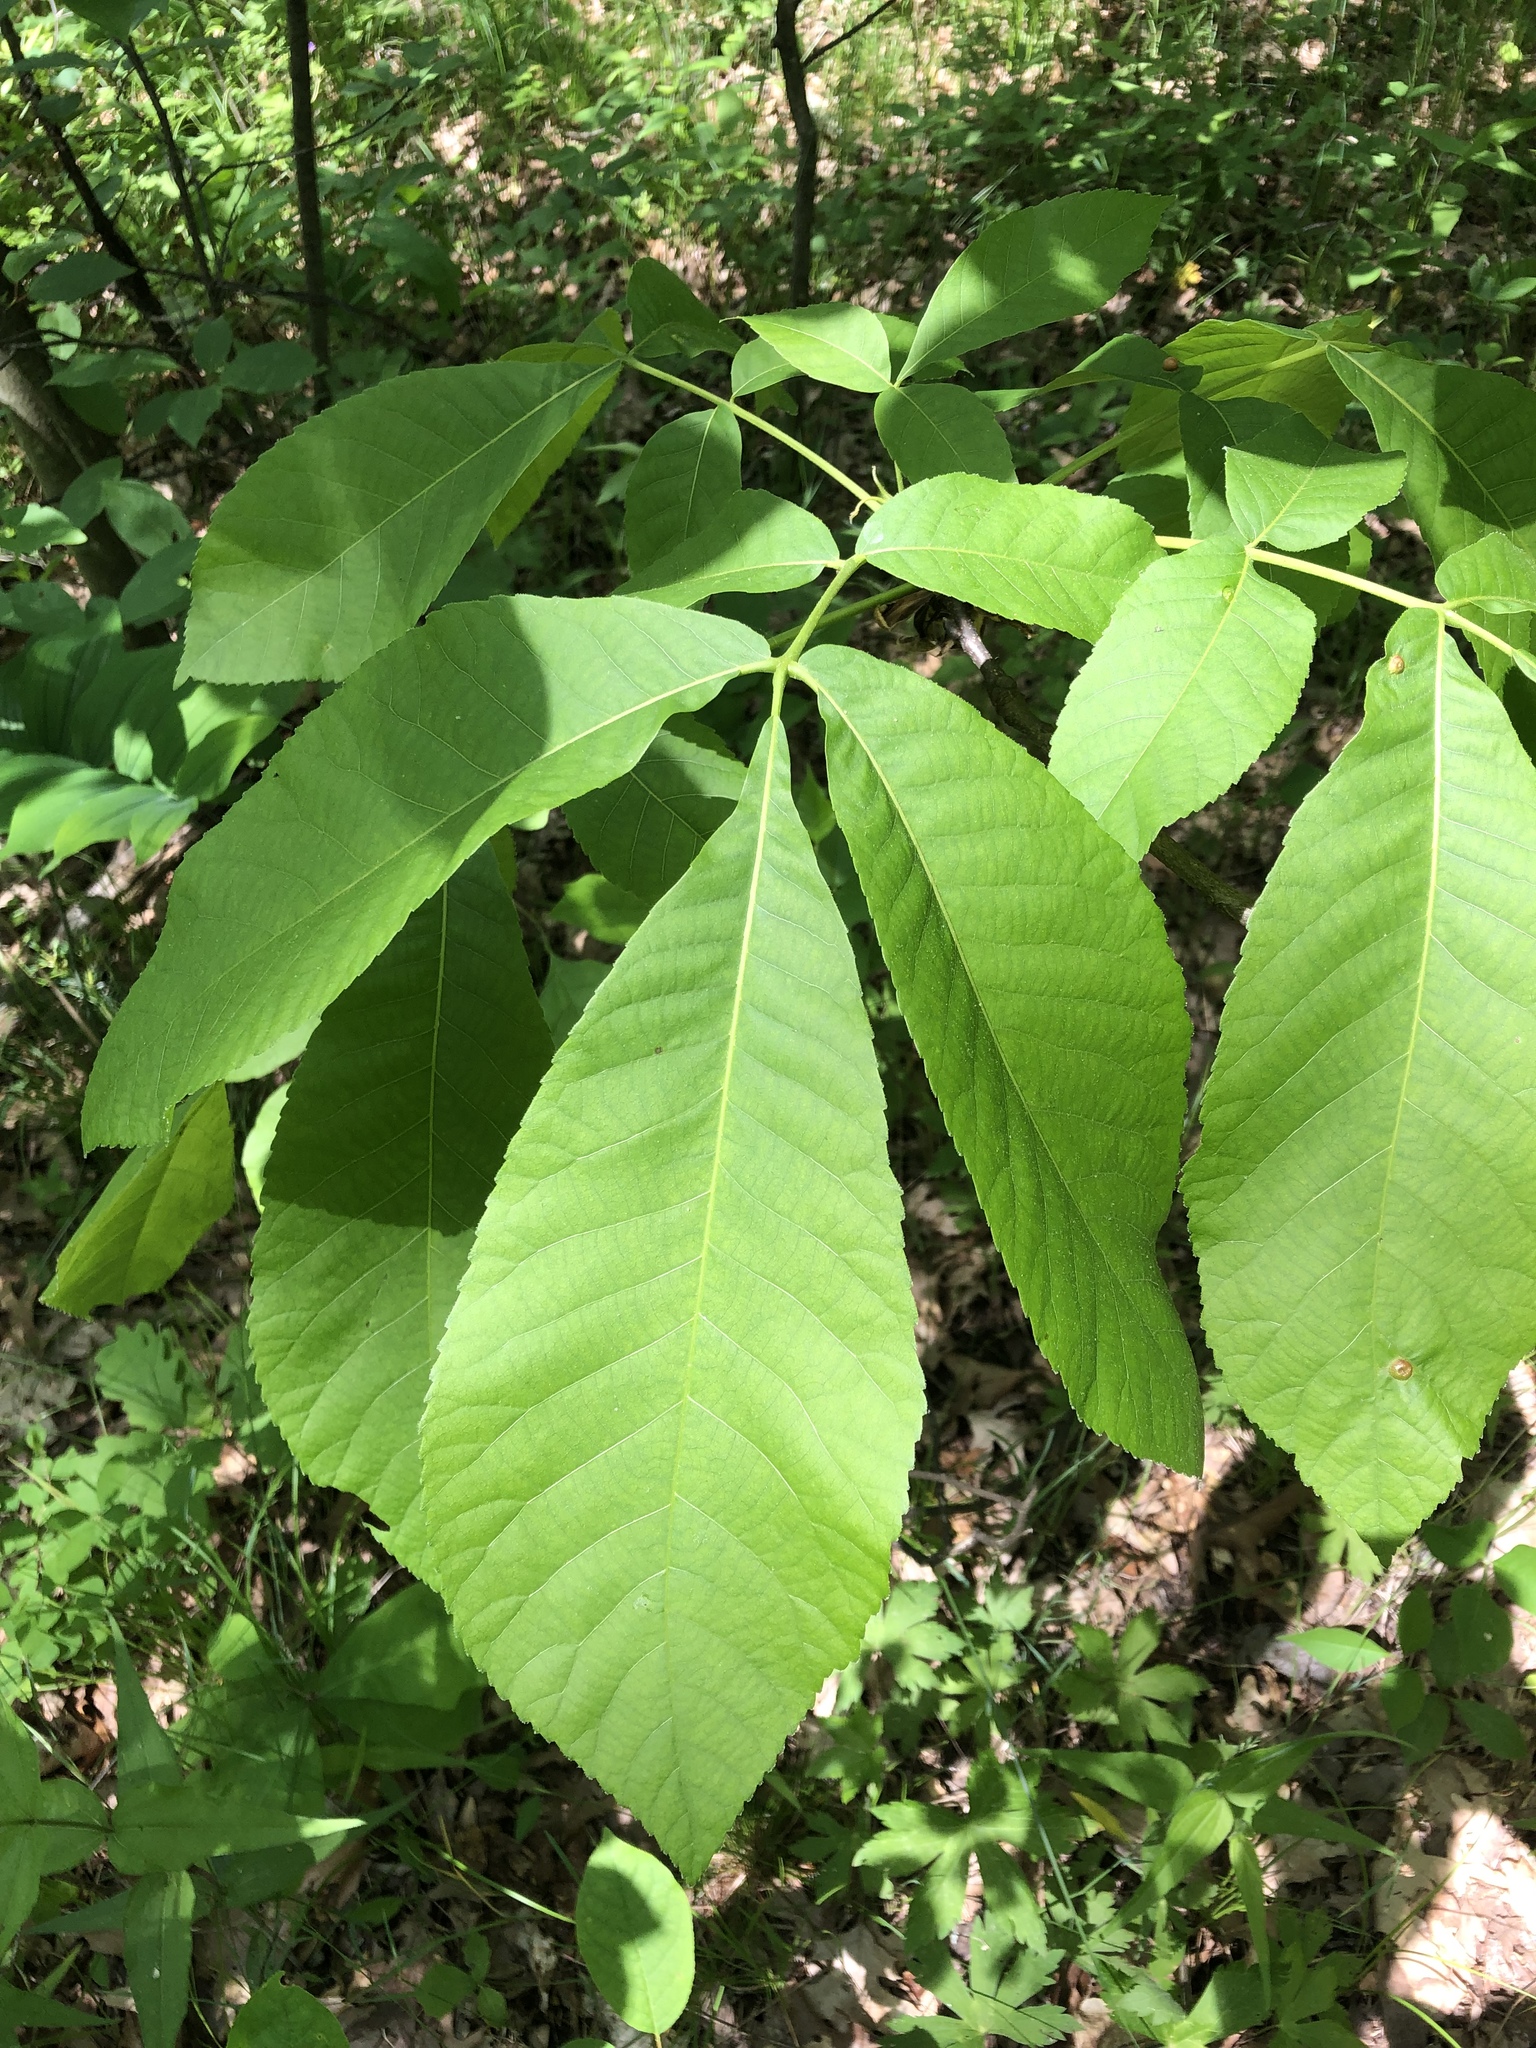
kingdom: Plantae
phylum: Tracheophyta
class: Magnoliopsida
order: Fagales
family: Juglandaceae
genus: Carya
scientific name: Carya ovata
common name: Shagbark hickory
